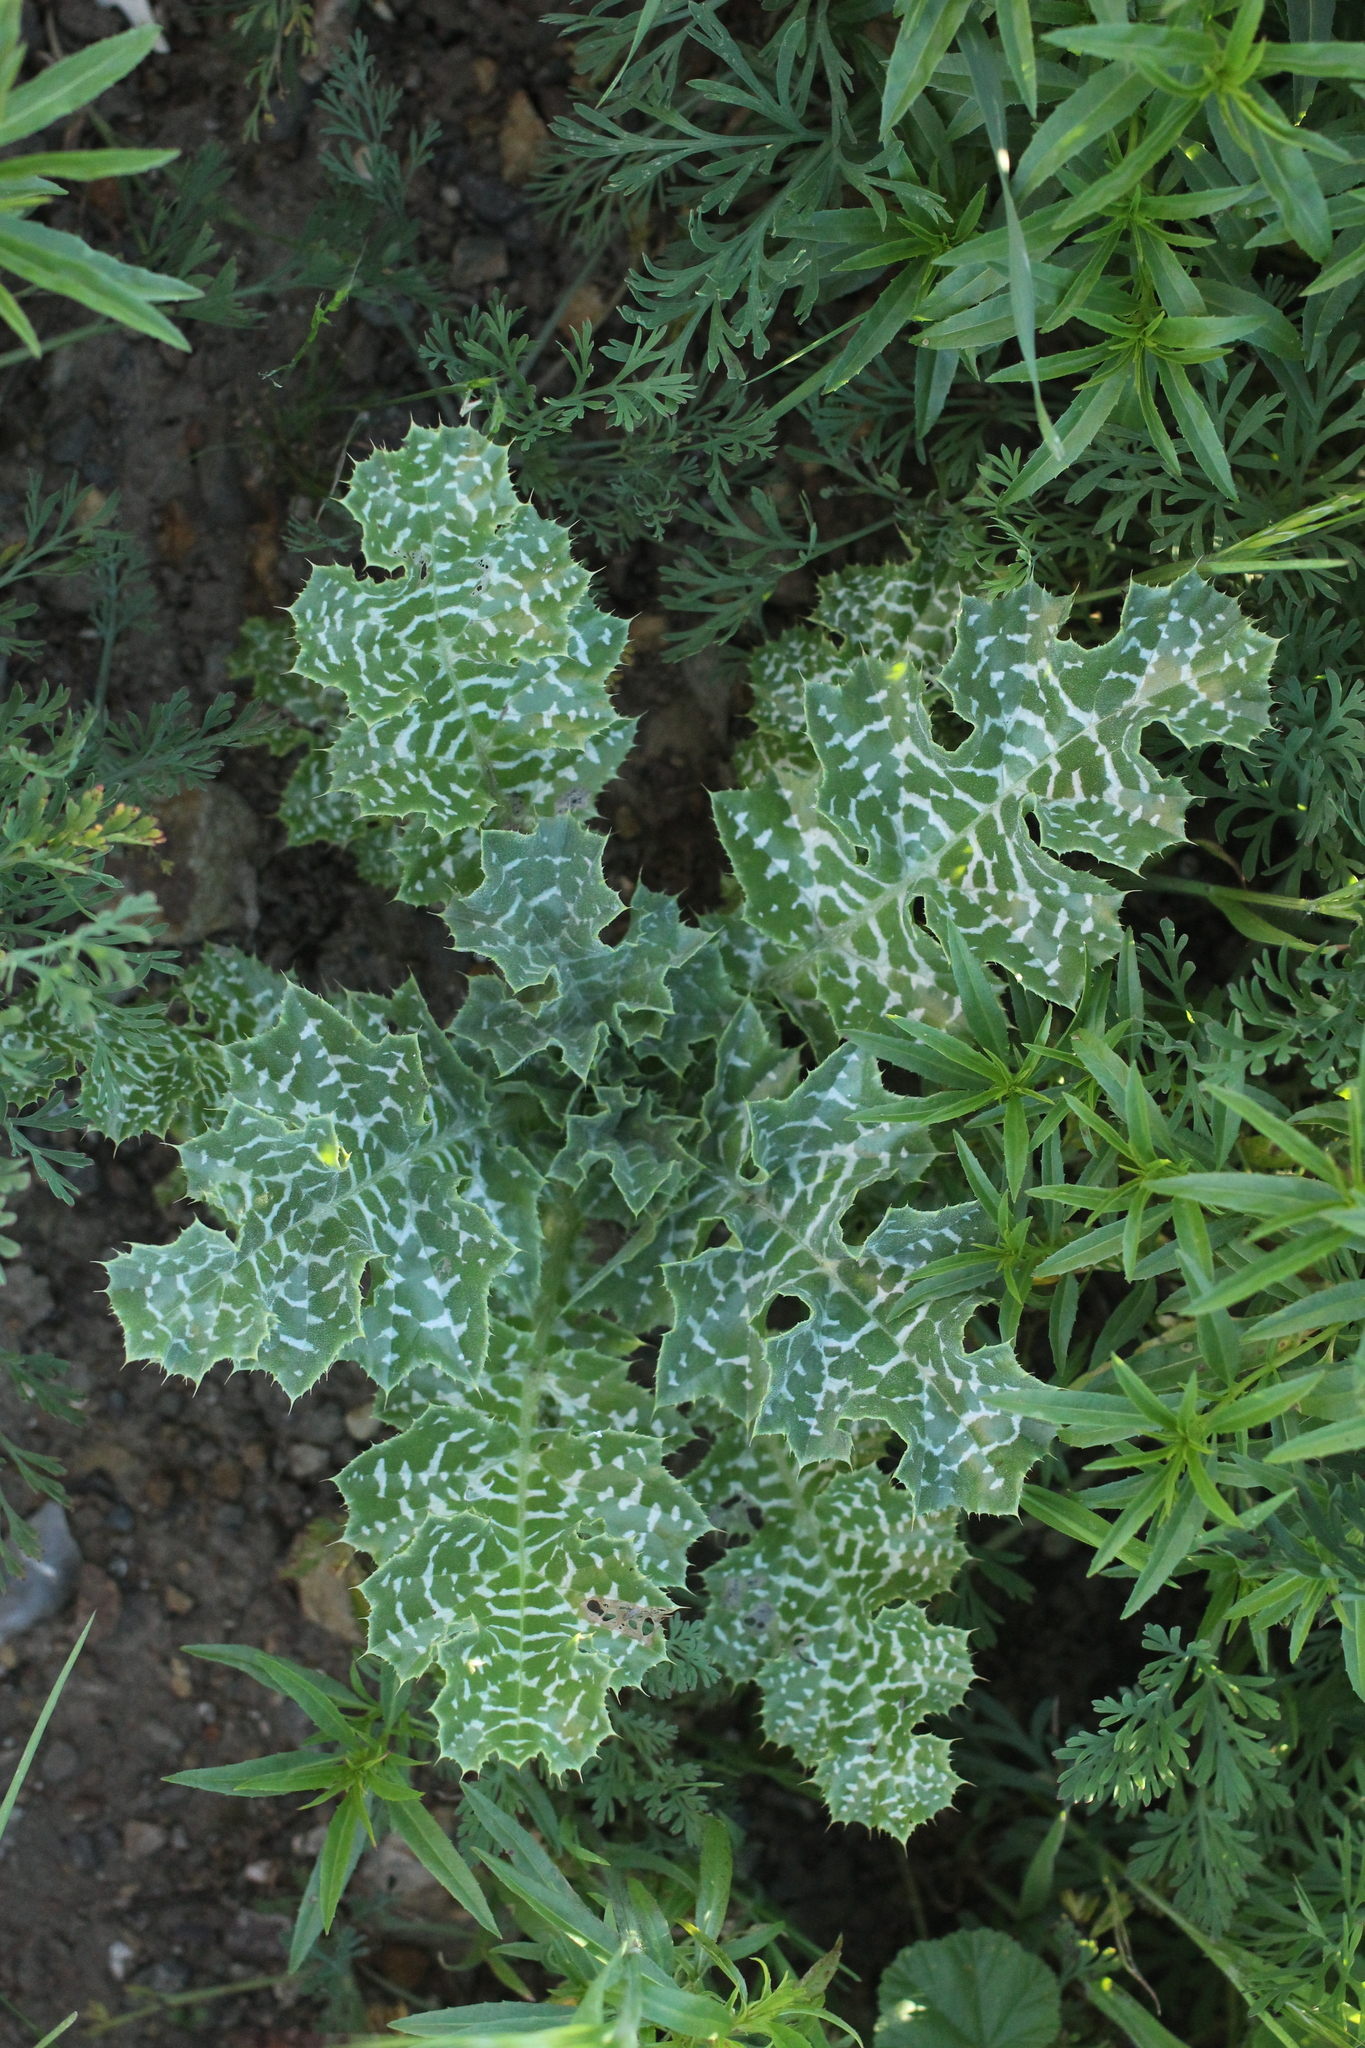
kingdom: Plantae
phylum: Tracheophyta
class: Magnoliopsida
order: Asterales
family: Asteraceae
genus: Silybum
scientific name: Silybum marianum
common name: Milk thistle
